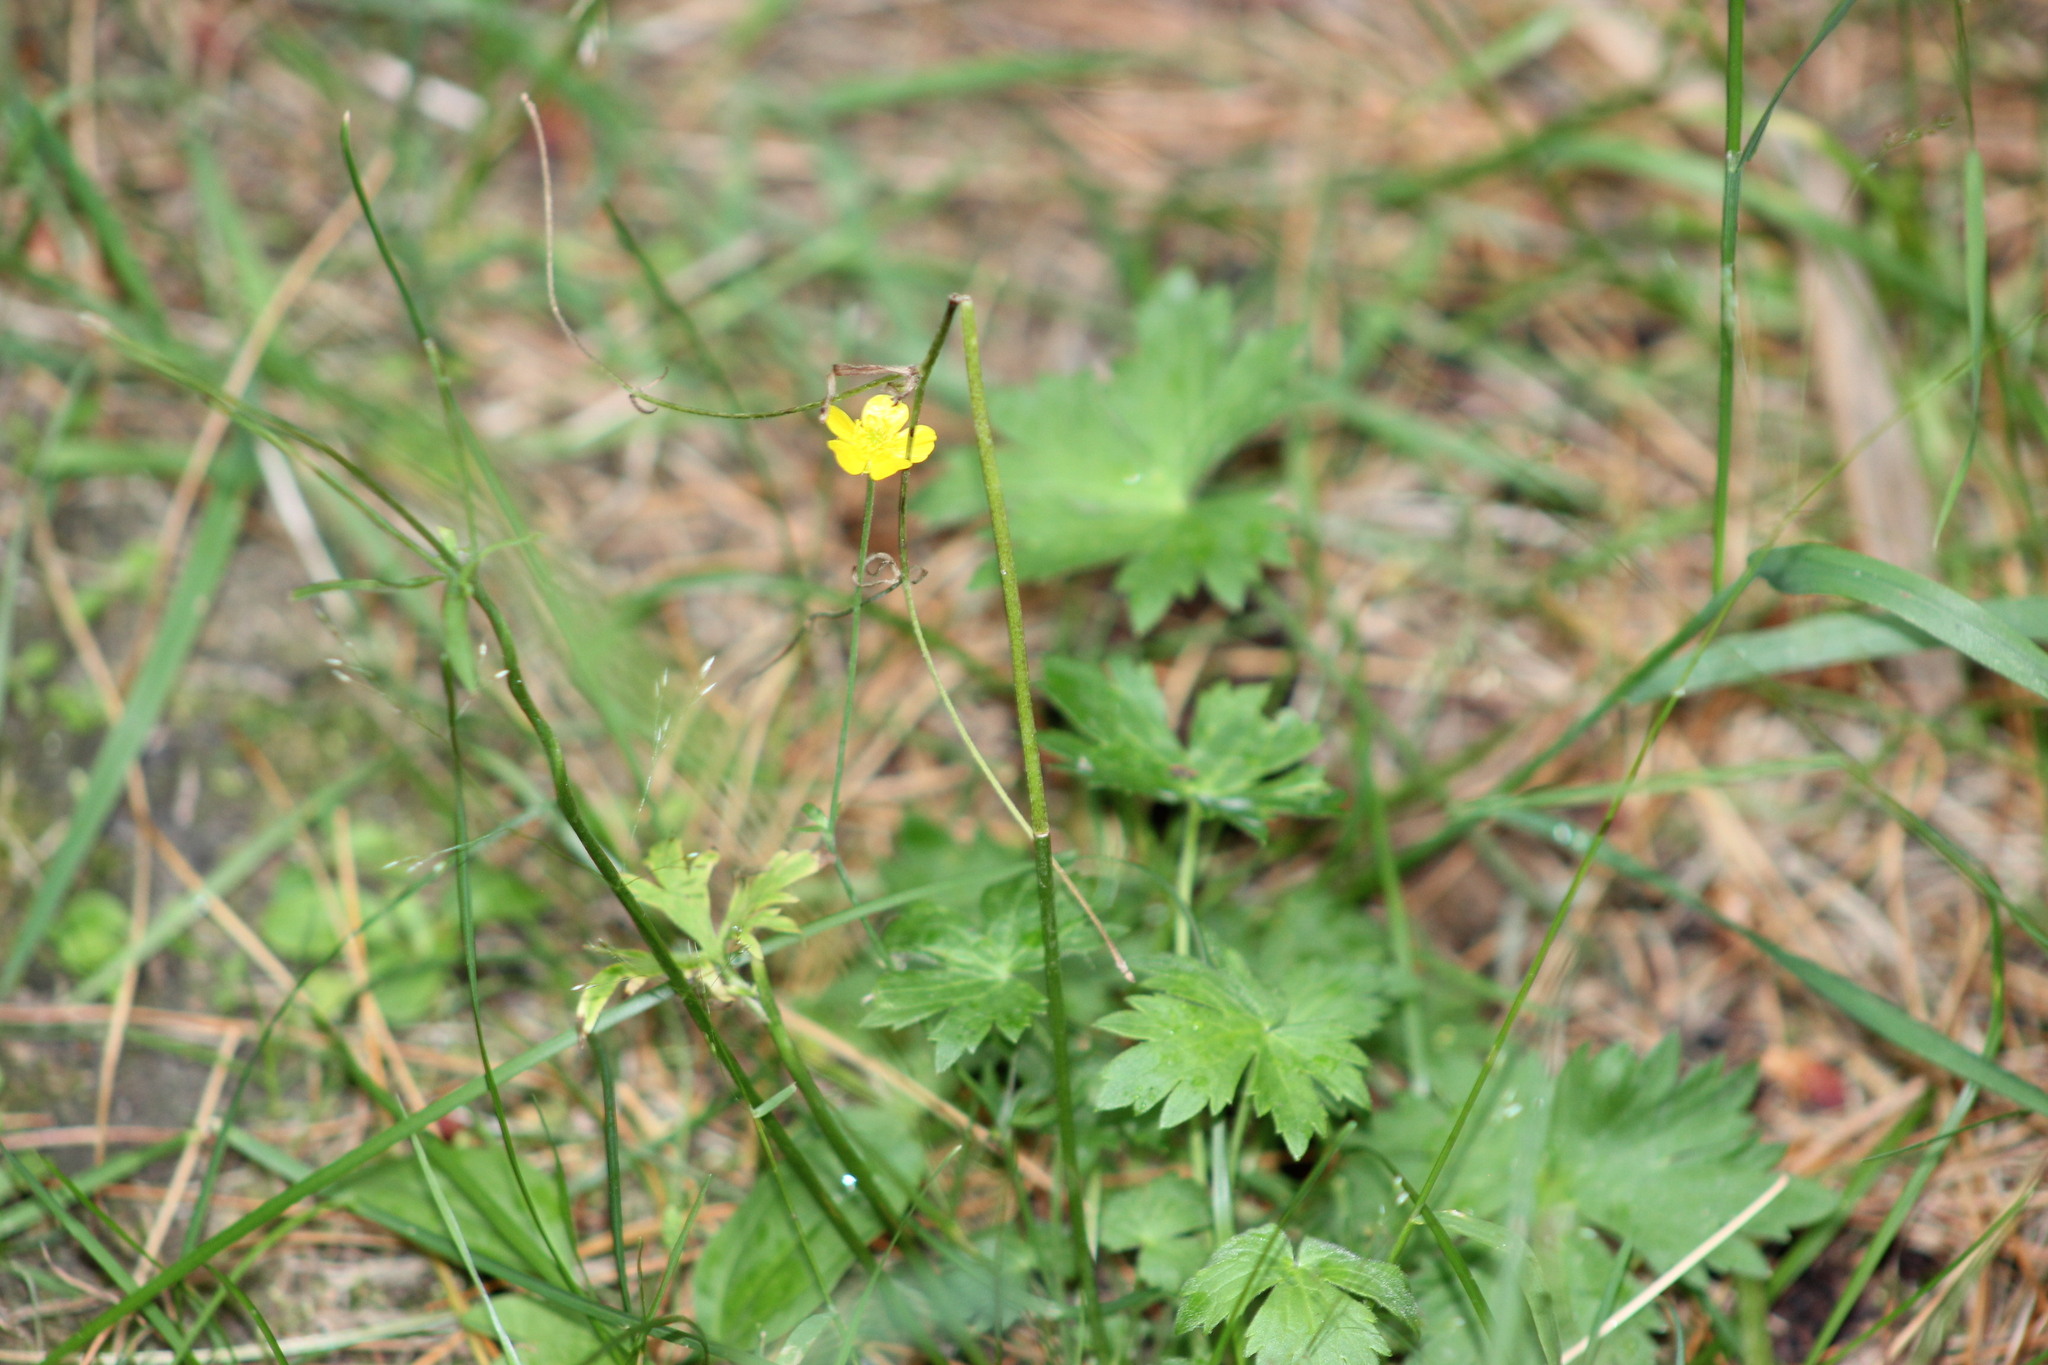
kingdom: Plantae
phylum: Tracheophyta
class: Magnoliopsida
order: Ranunculales
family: Ranunculaceae
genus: Ranunculus
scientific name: Ranunculus propinquus
